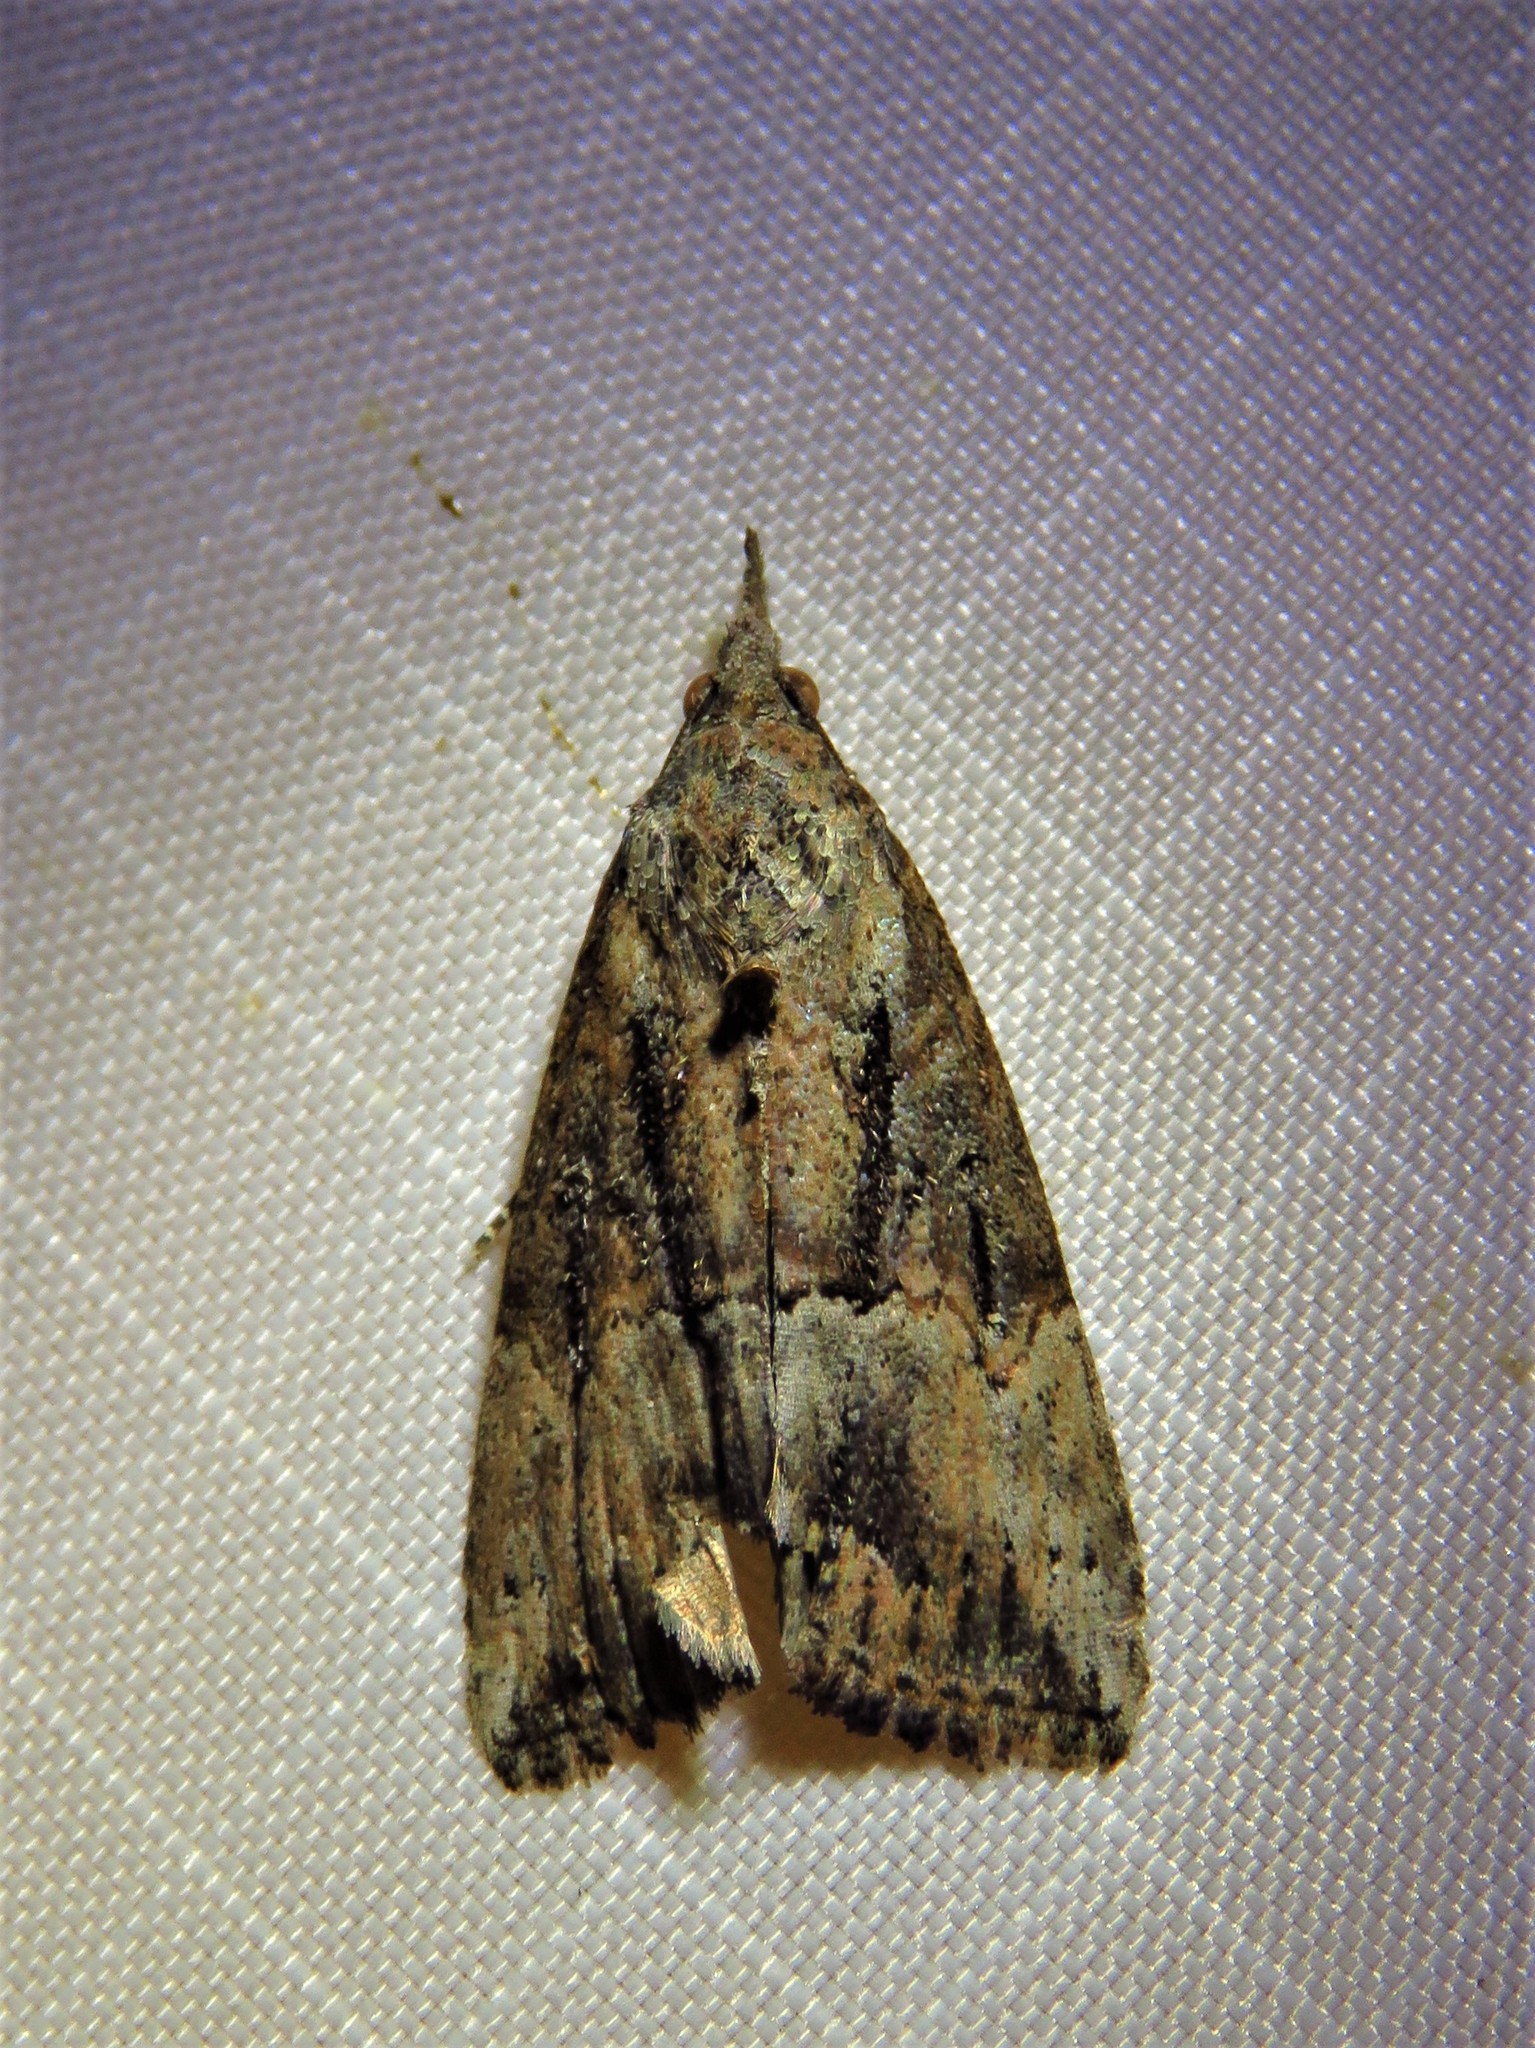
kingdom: Animalia
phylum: Arthropoda
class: Insecta
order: Lepidoptera
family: Erebidae
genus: Hypena
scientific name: Hypena scabra
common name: Green cloverworm
